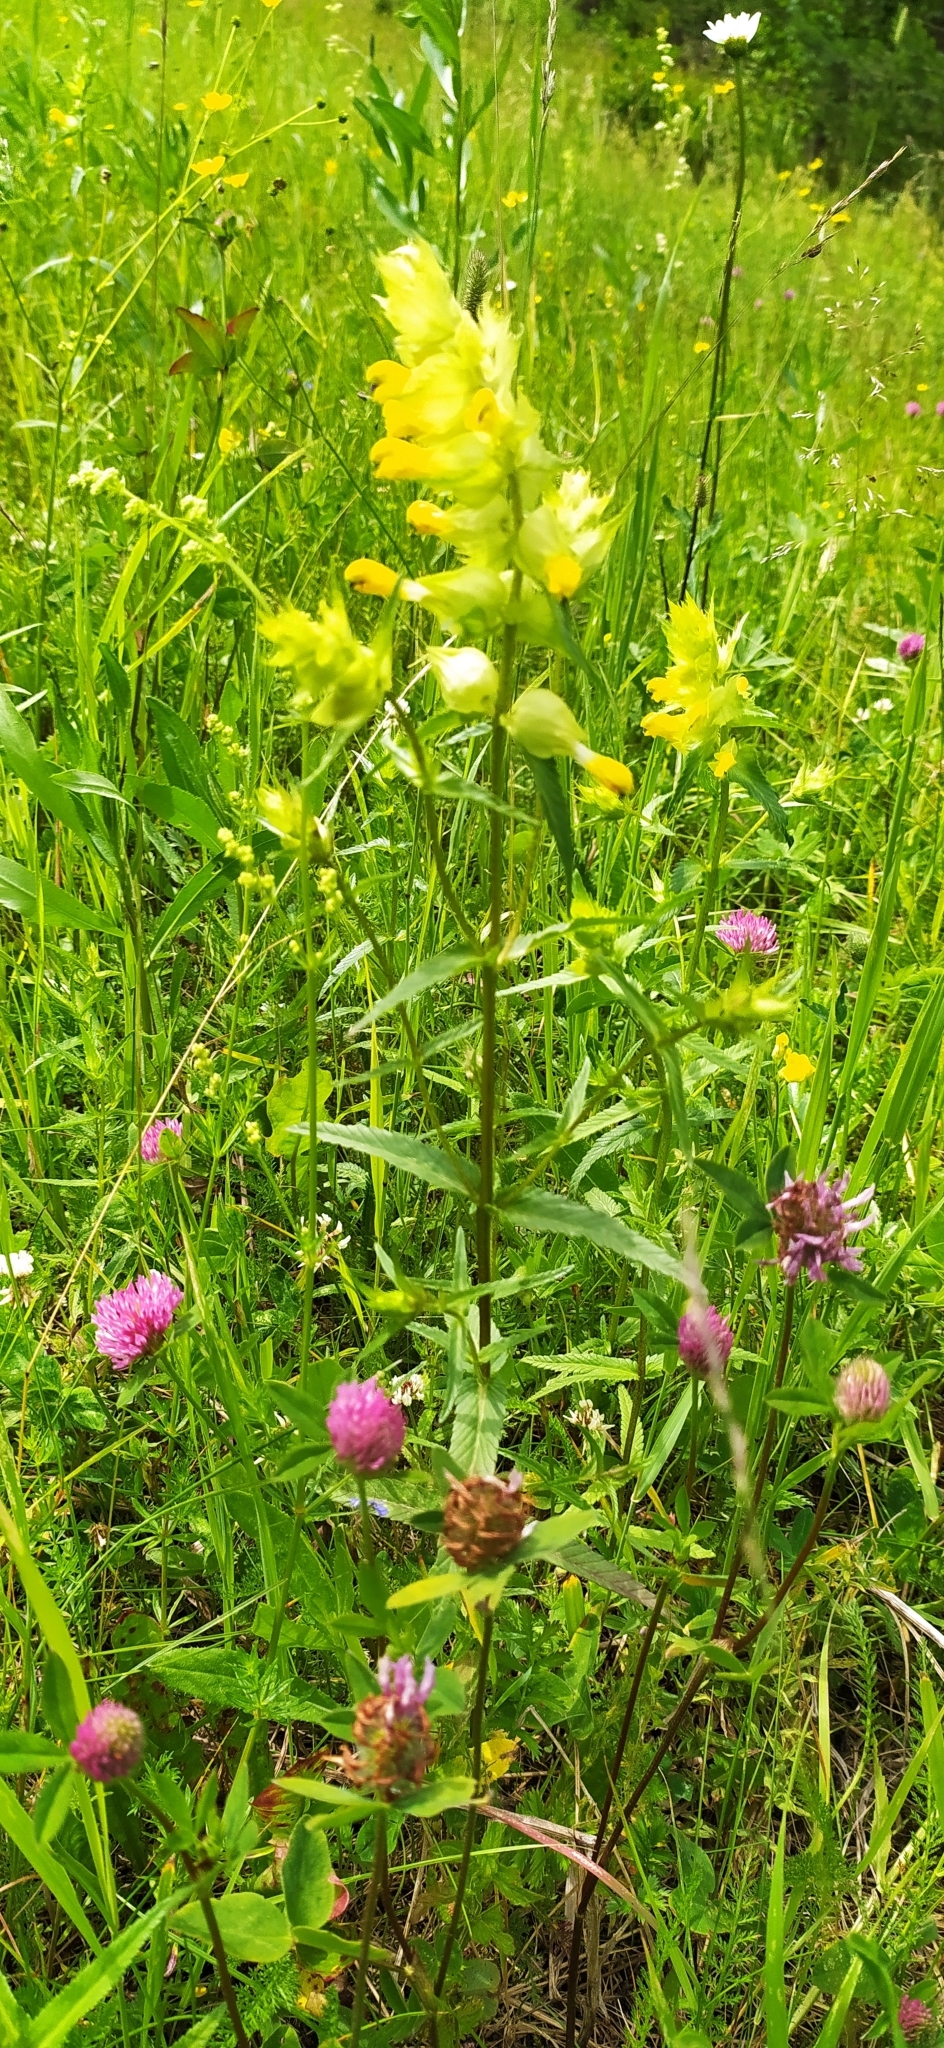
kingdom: Plantae
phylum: Tracheophyta
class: Magnoliopsida
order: Lamiales
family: Orobanchaceae
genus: Rhinanthus
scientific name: Rhinanthus serotinus
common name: Late-flowering yellow rattle
